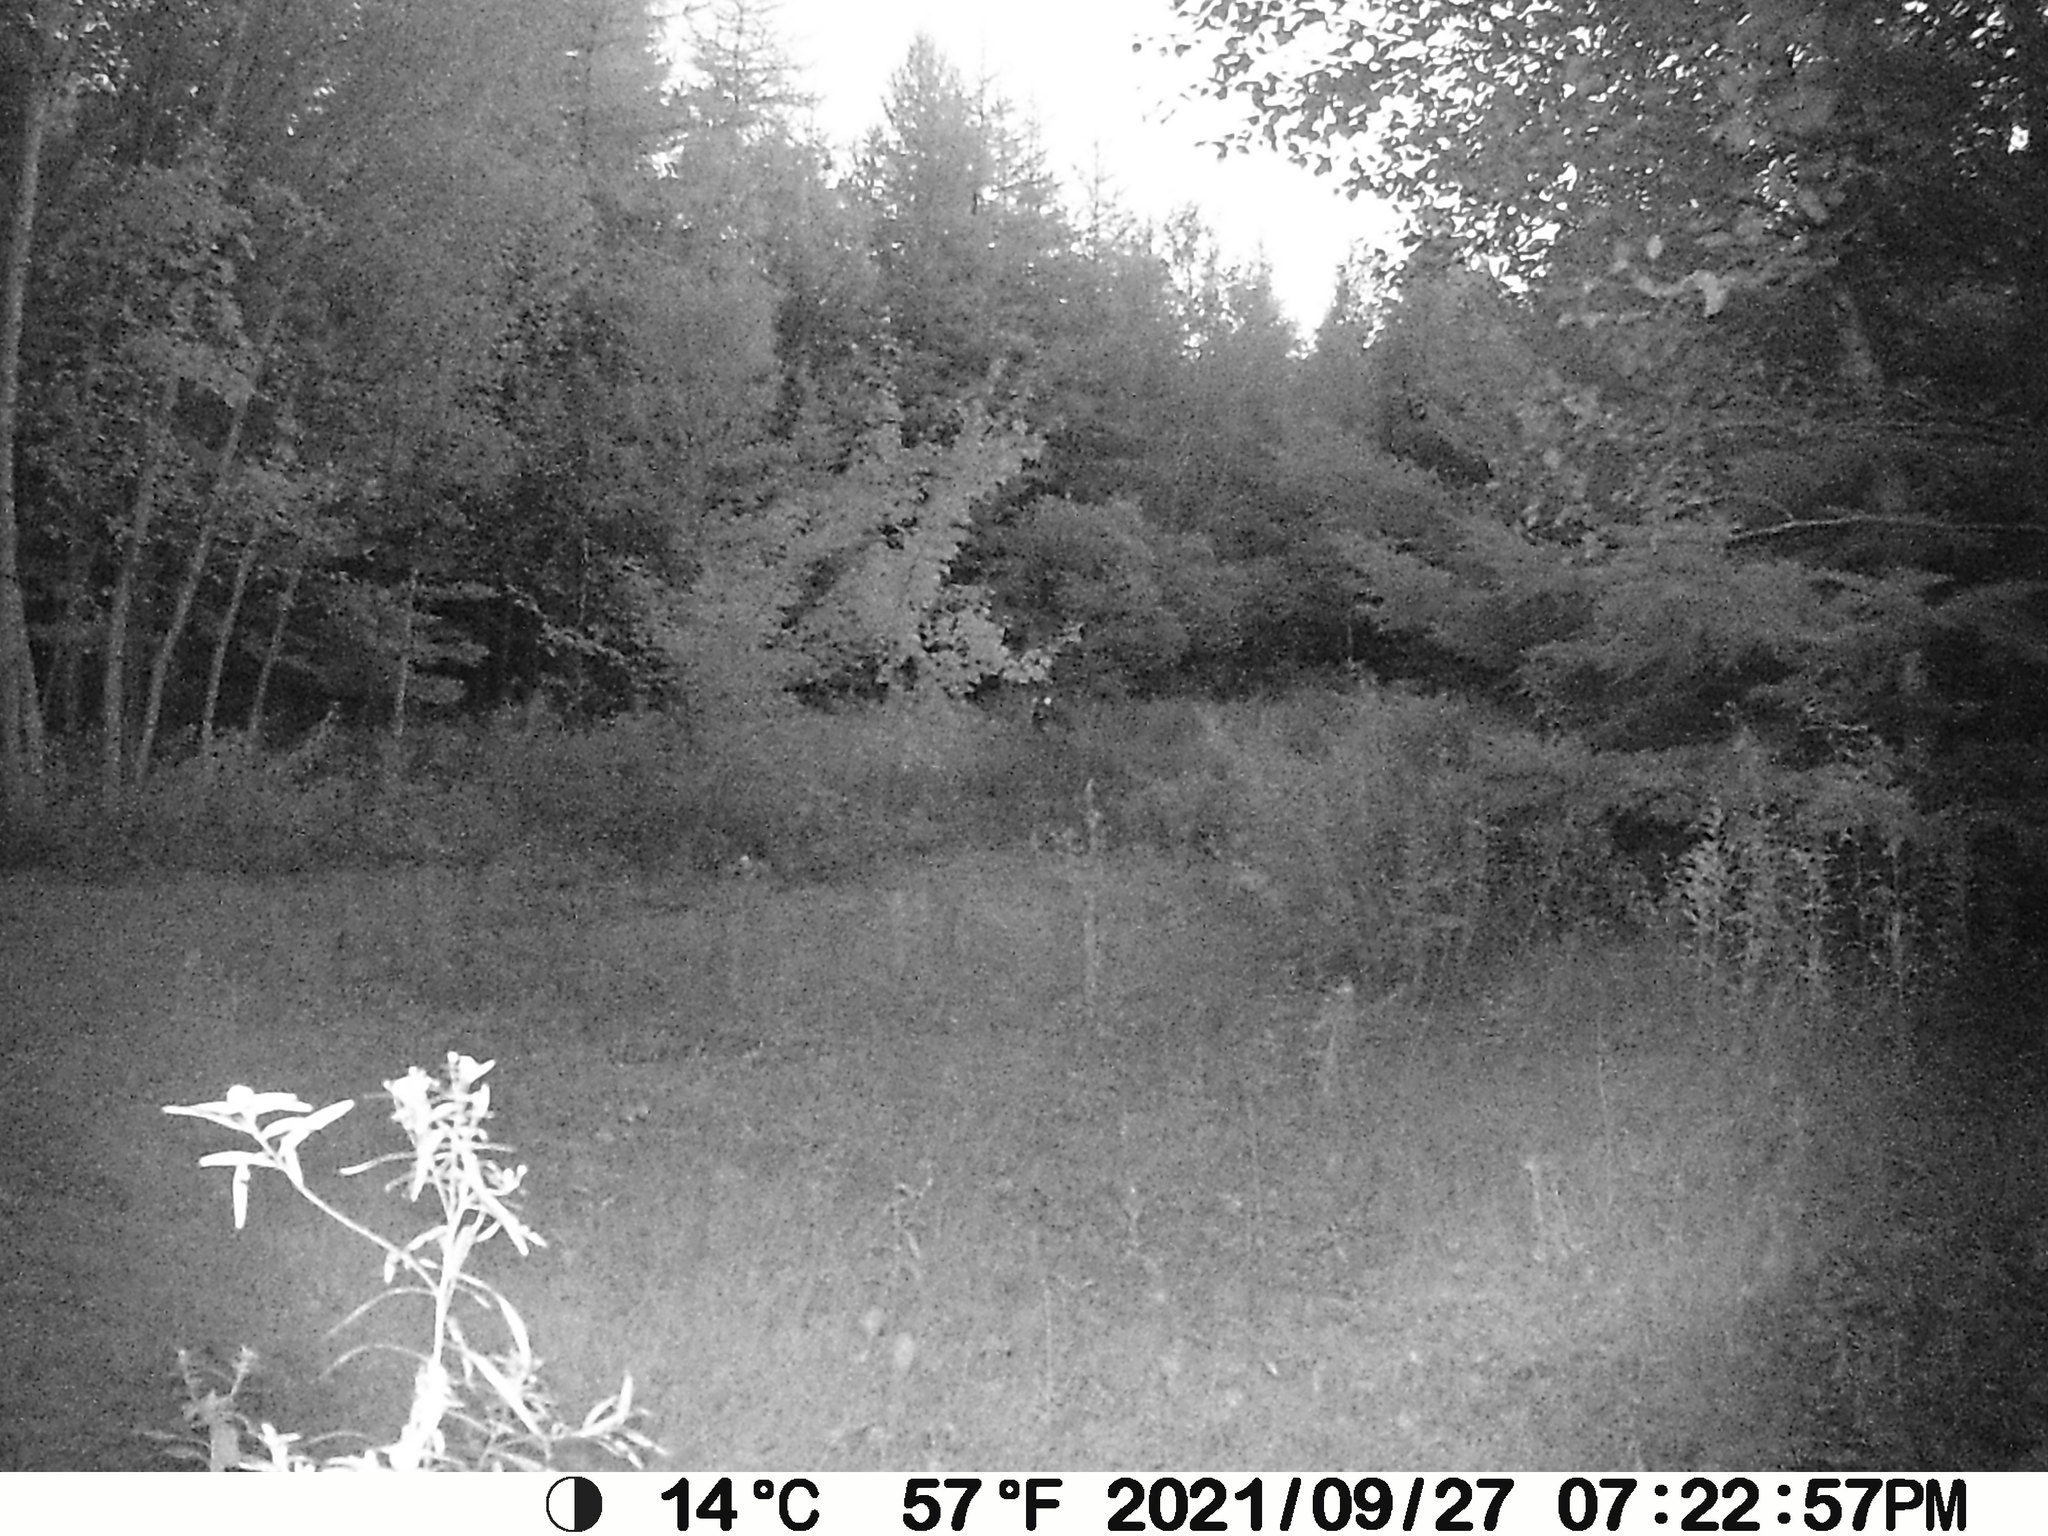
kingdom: Animalia
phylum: Chordata
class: Mammalia
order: Artiodactyla
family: Cervidae
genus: Odocoileus
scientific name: Odocoileus virginianus
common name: White-tailed deer
